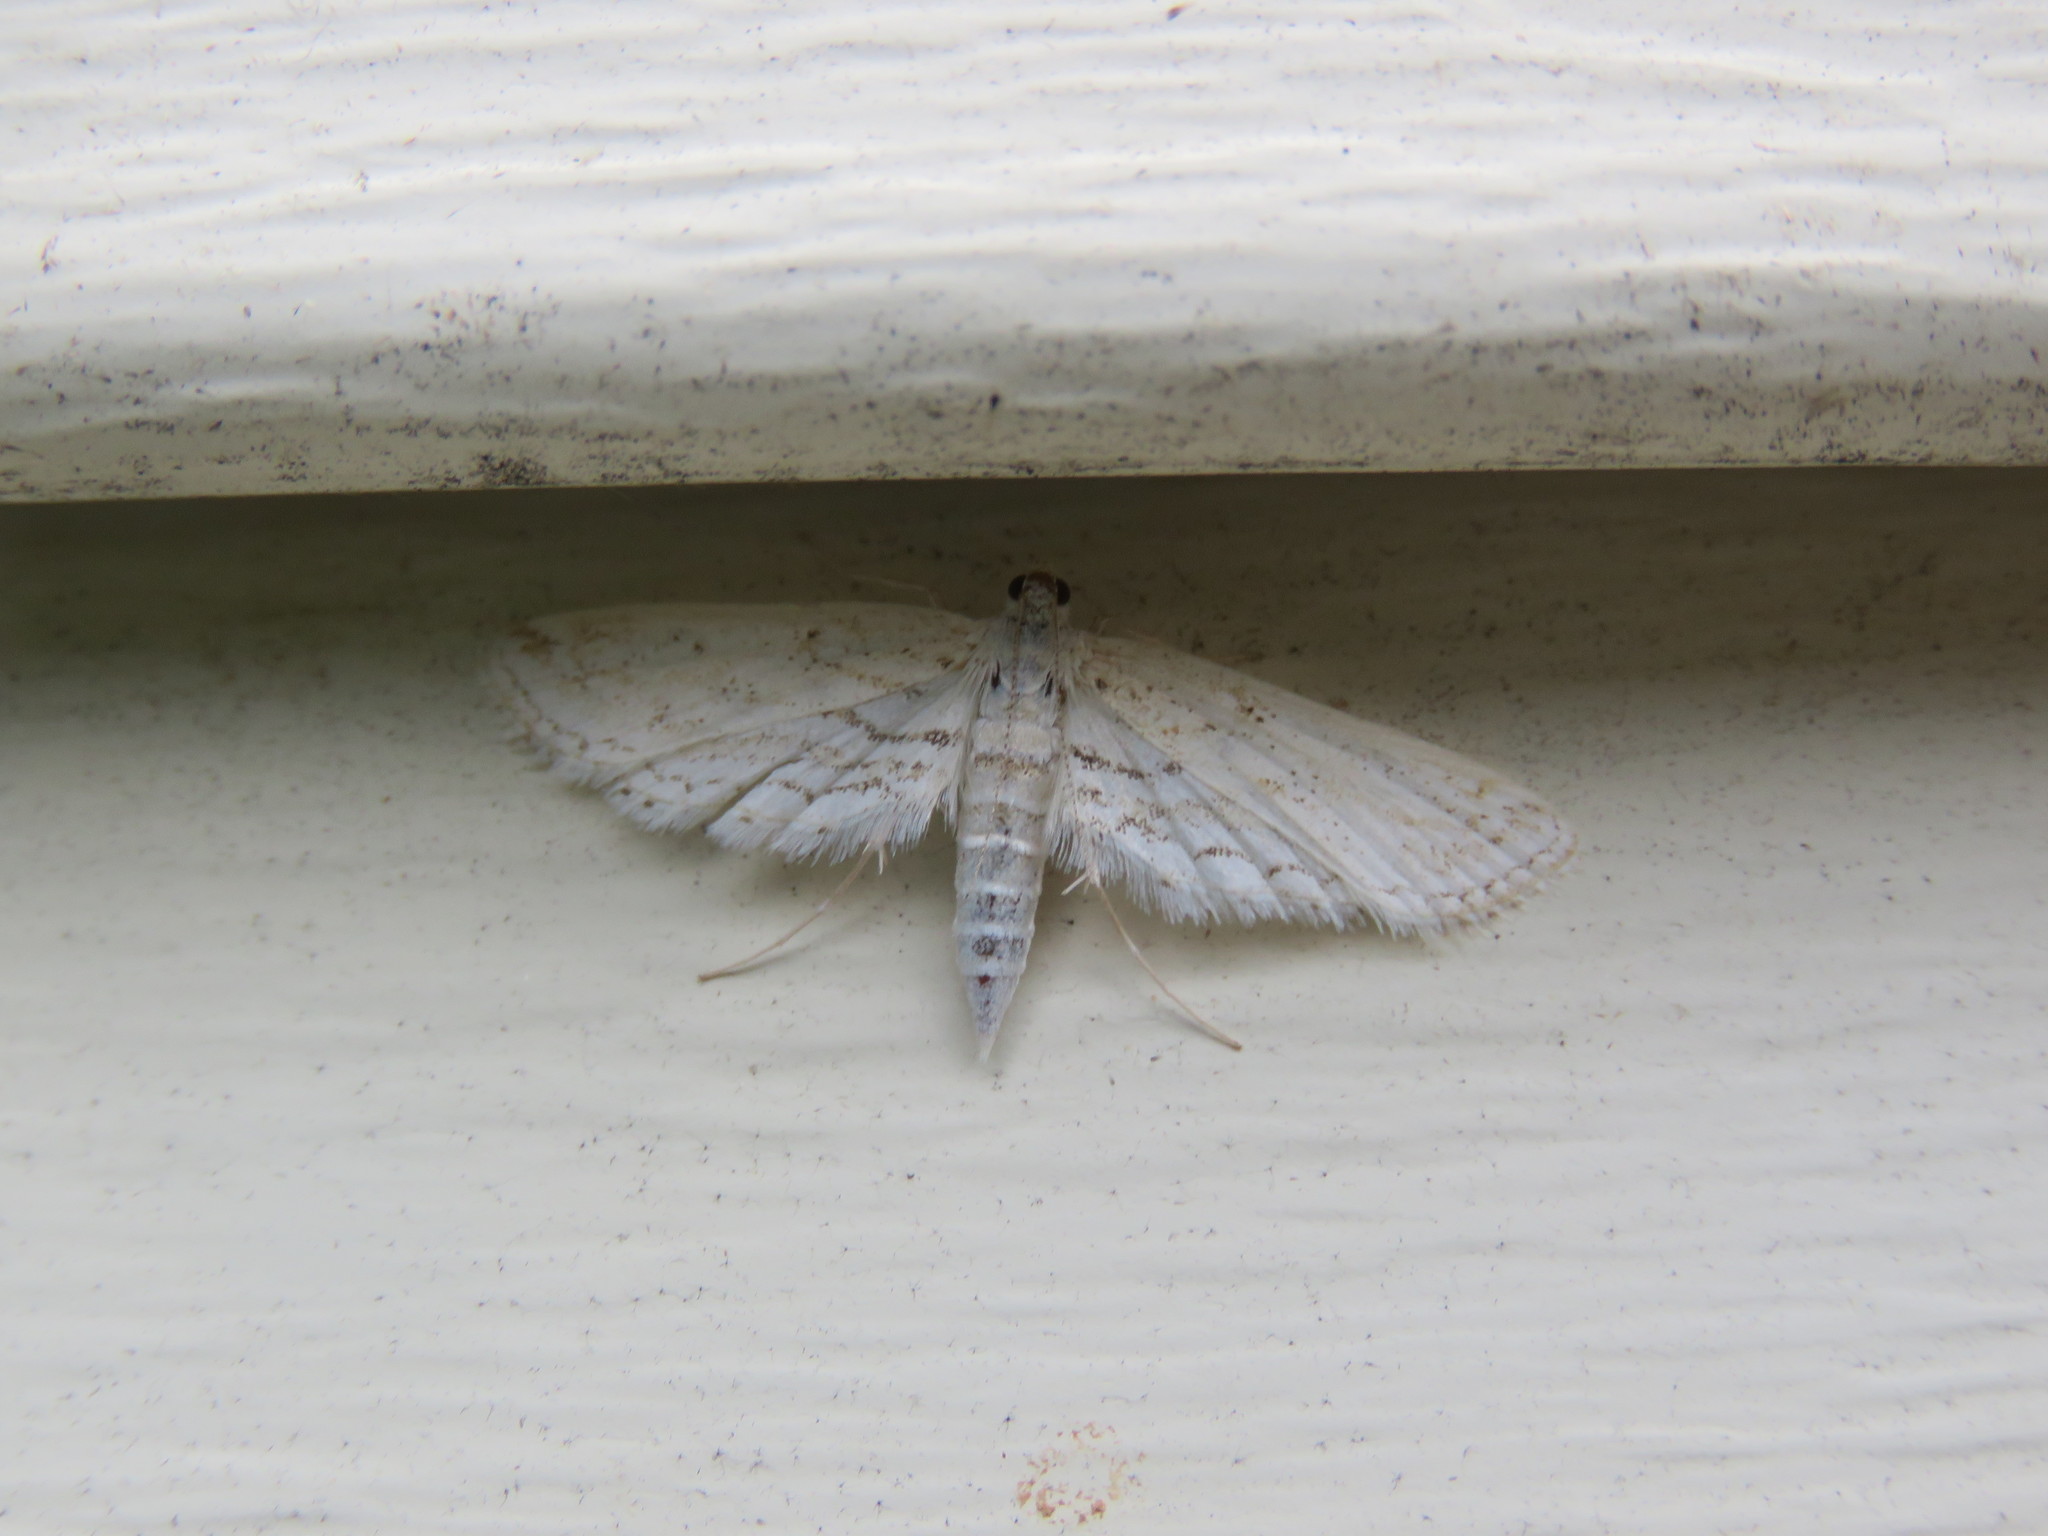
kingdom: Animalia
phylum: Arthropoda
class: Insecta
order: Lepidoptera
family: Crambidae
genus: Parapoynx
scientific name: Parapoynx allionealis
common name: Bladderwort casemaker
